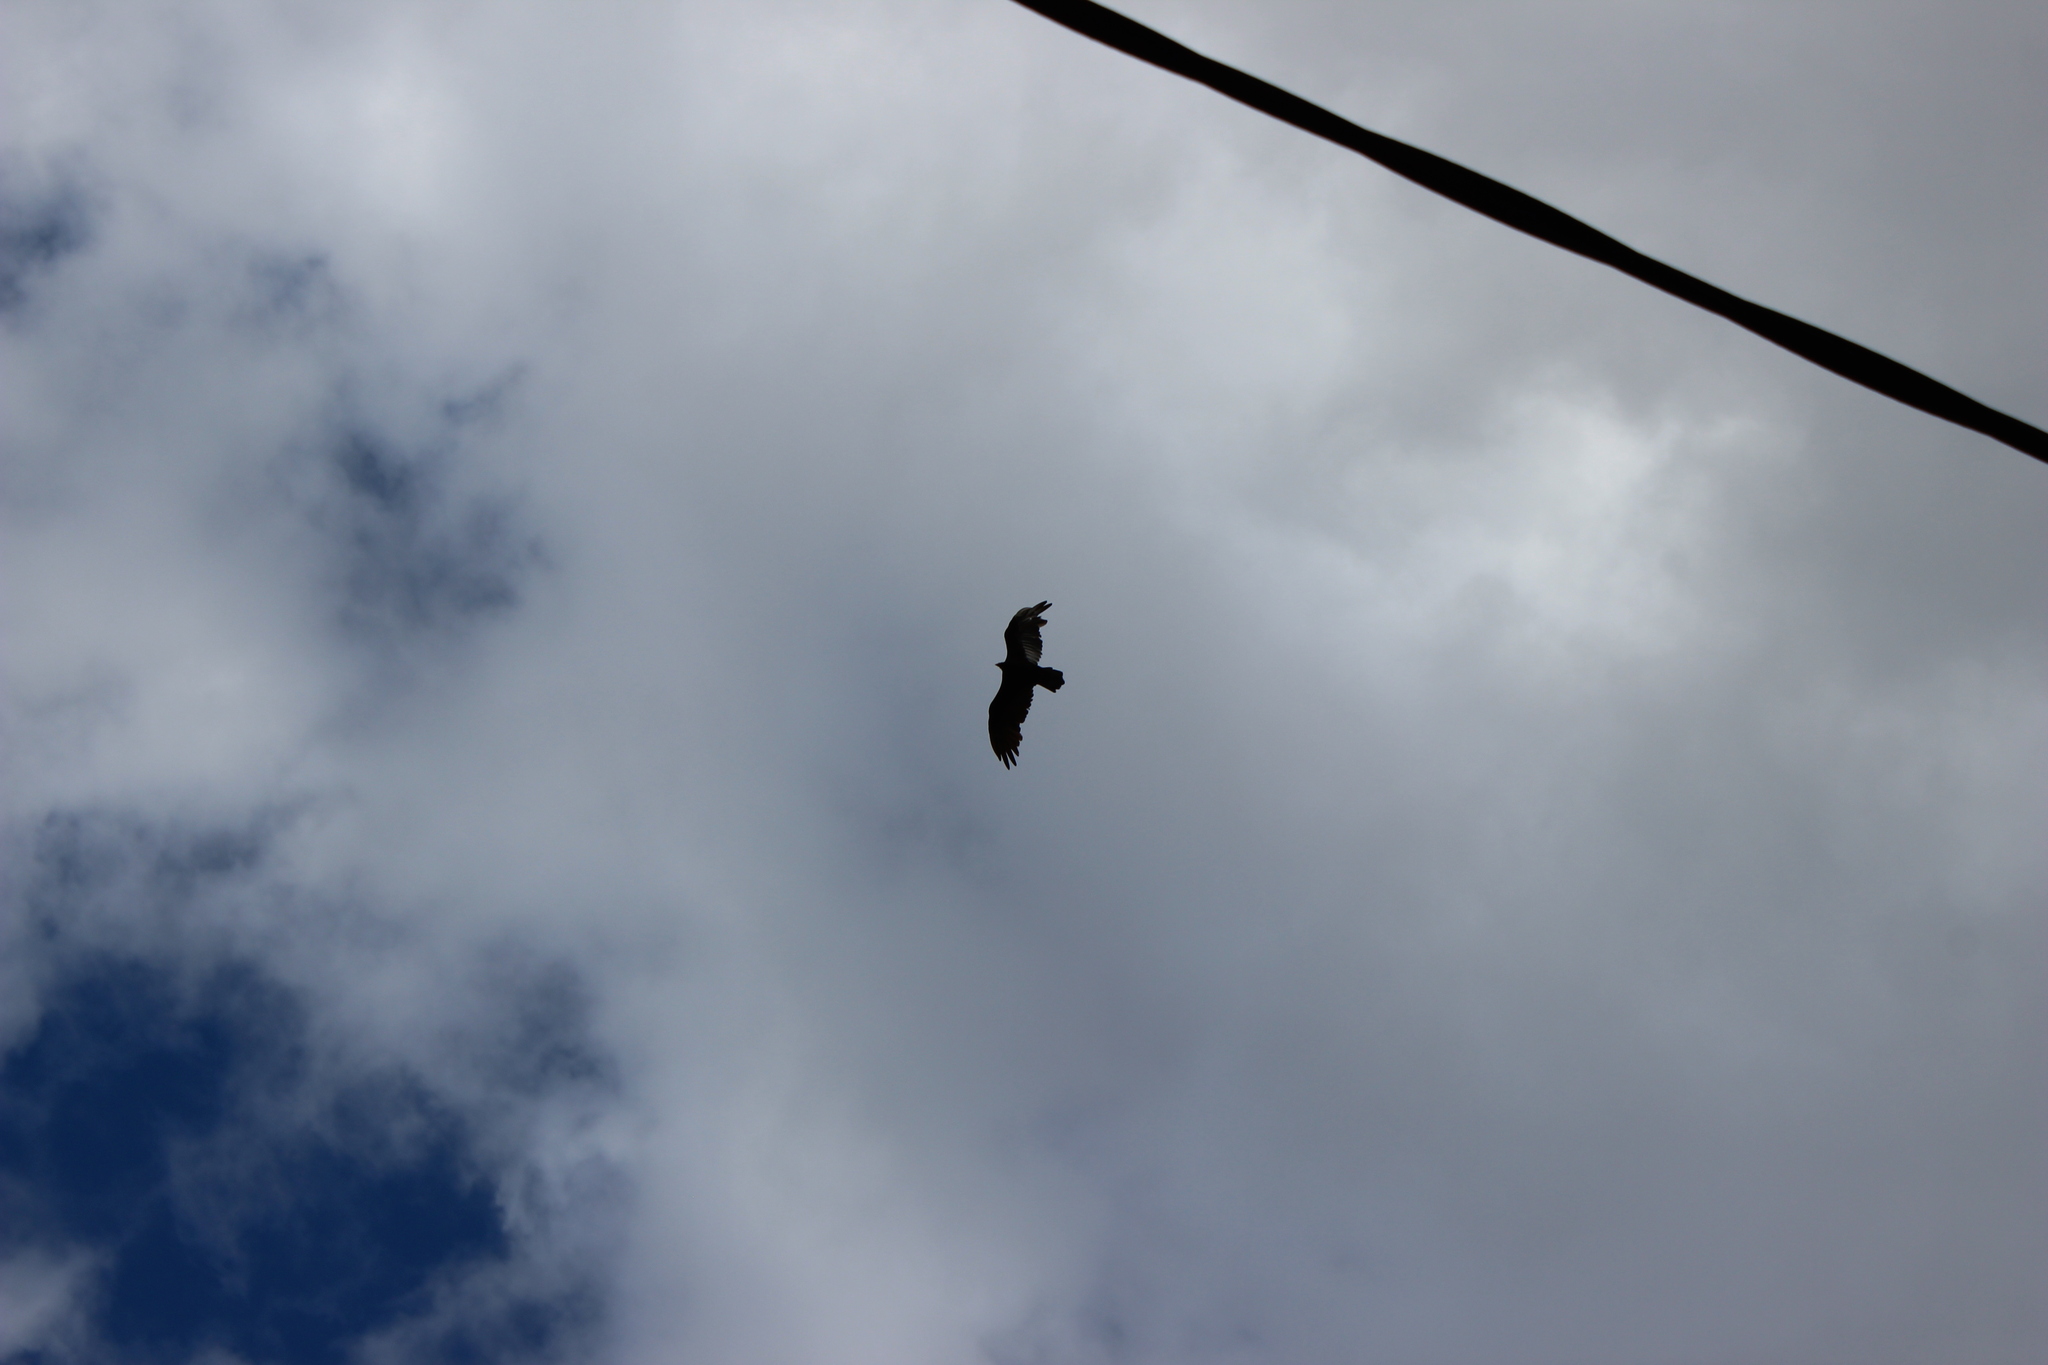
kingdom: Animalia
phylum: Chordata
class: Aves
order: Accipitriformes
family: Cathartidae
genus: Cathartes
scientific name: Cathartes aura
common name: Turkey vulture
